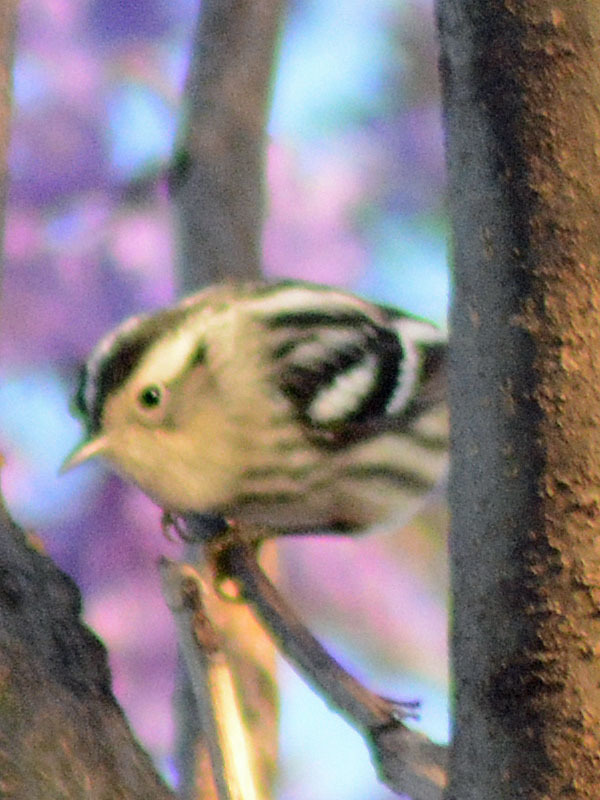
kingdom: Animalia
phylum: Chordata
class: Aves
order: Passeriformes
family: Parulidae
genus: Mniotilta
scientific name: Mniotilta varia
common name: Black-and-white warbler
